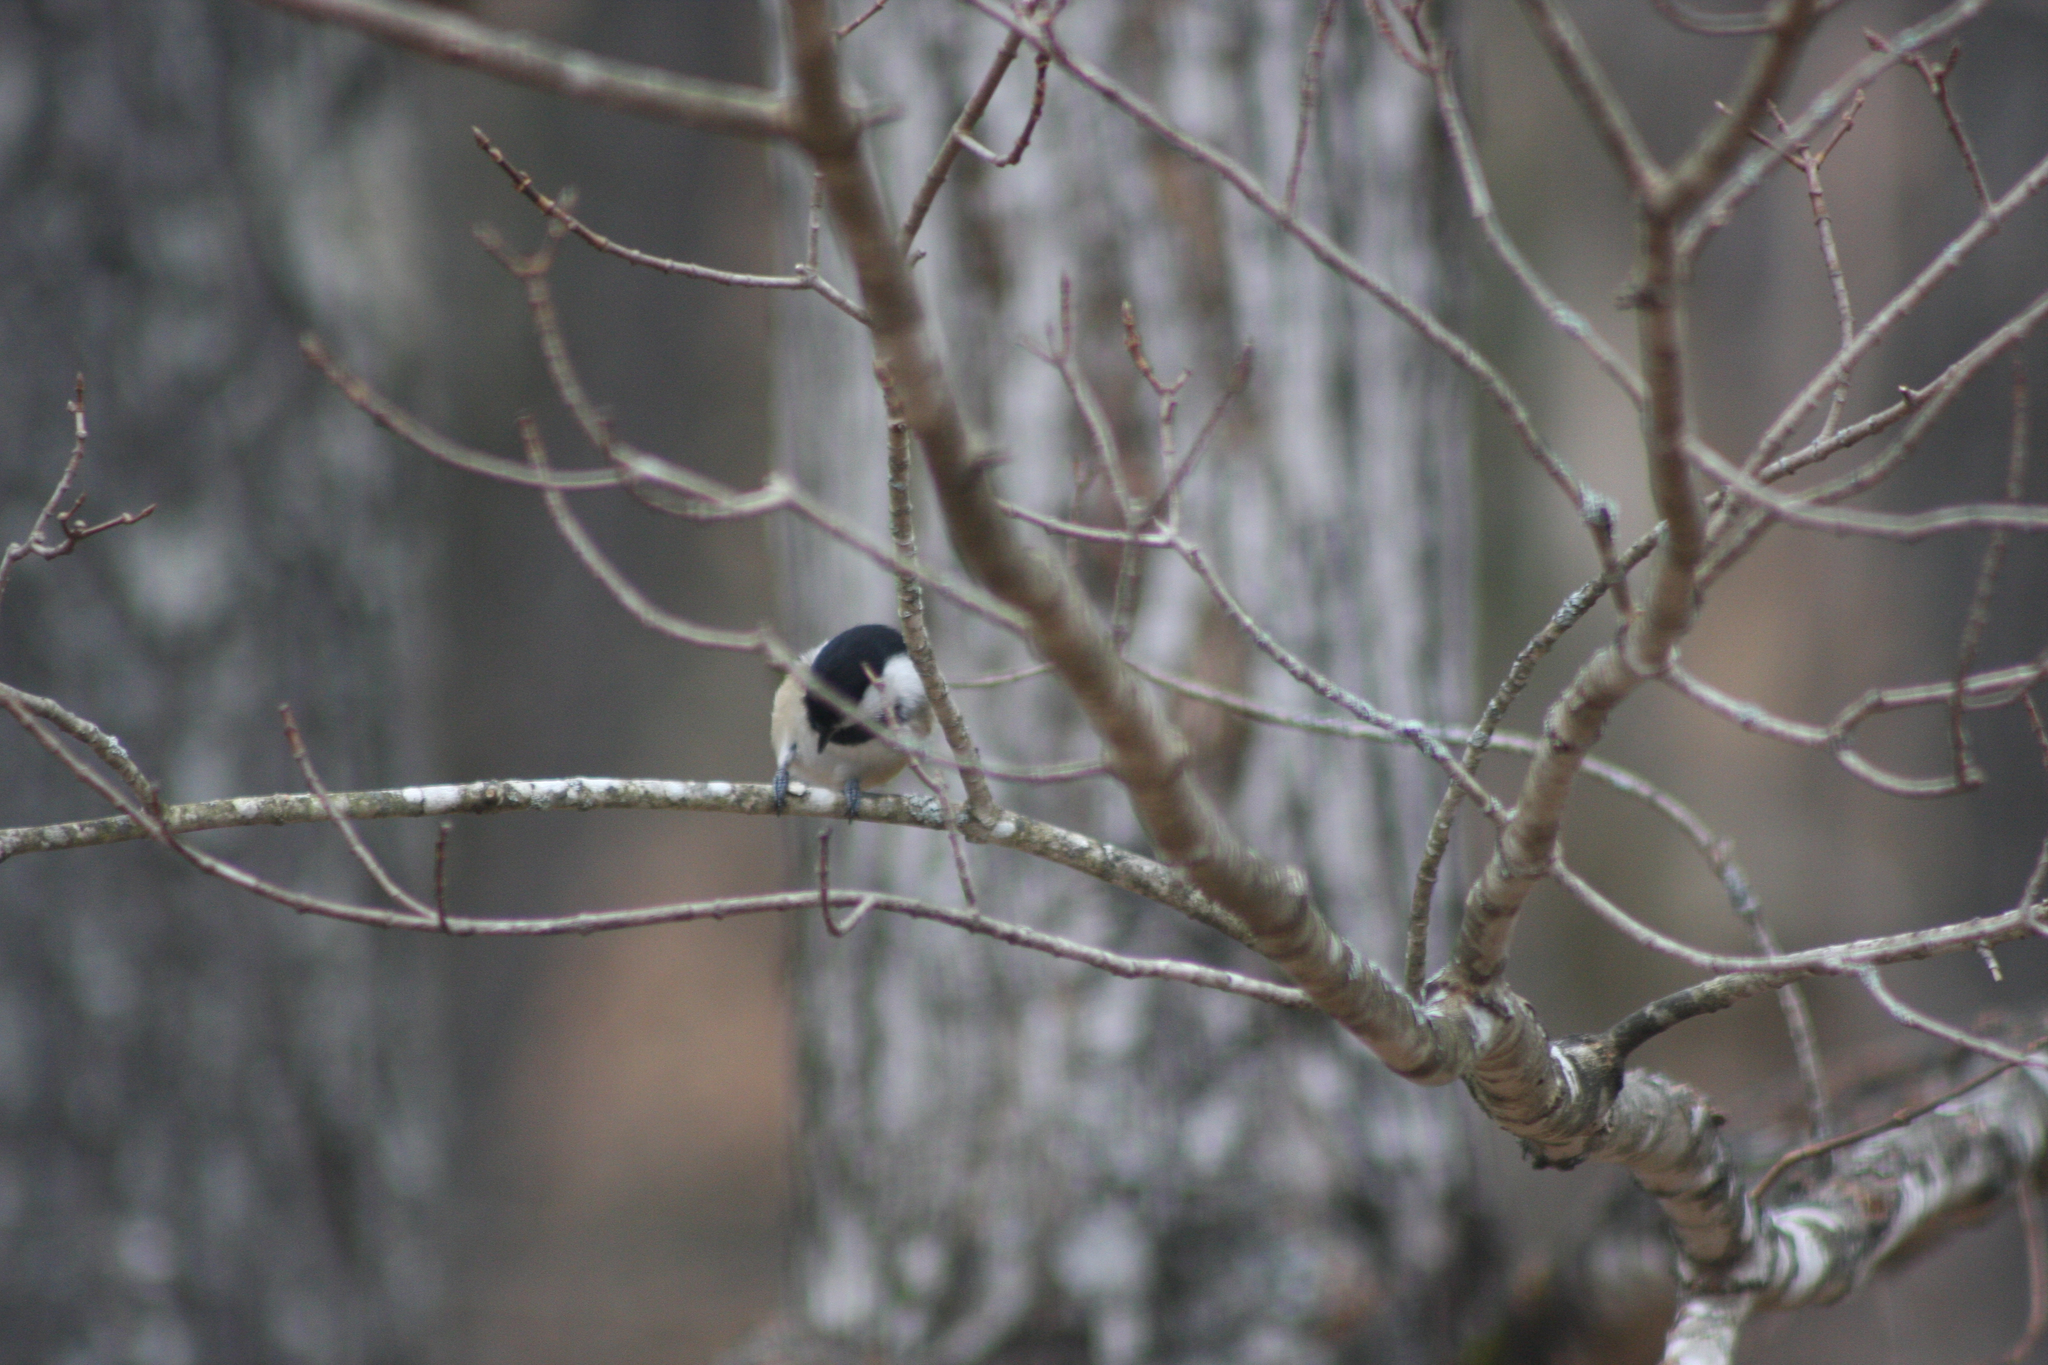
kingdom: Animalia
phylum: Chordata
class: Aves
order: Passeriformes
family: Paridae
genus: Poecile
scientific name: Poecile atricapillus
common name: Black-capped chickadee
